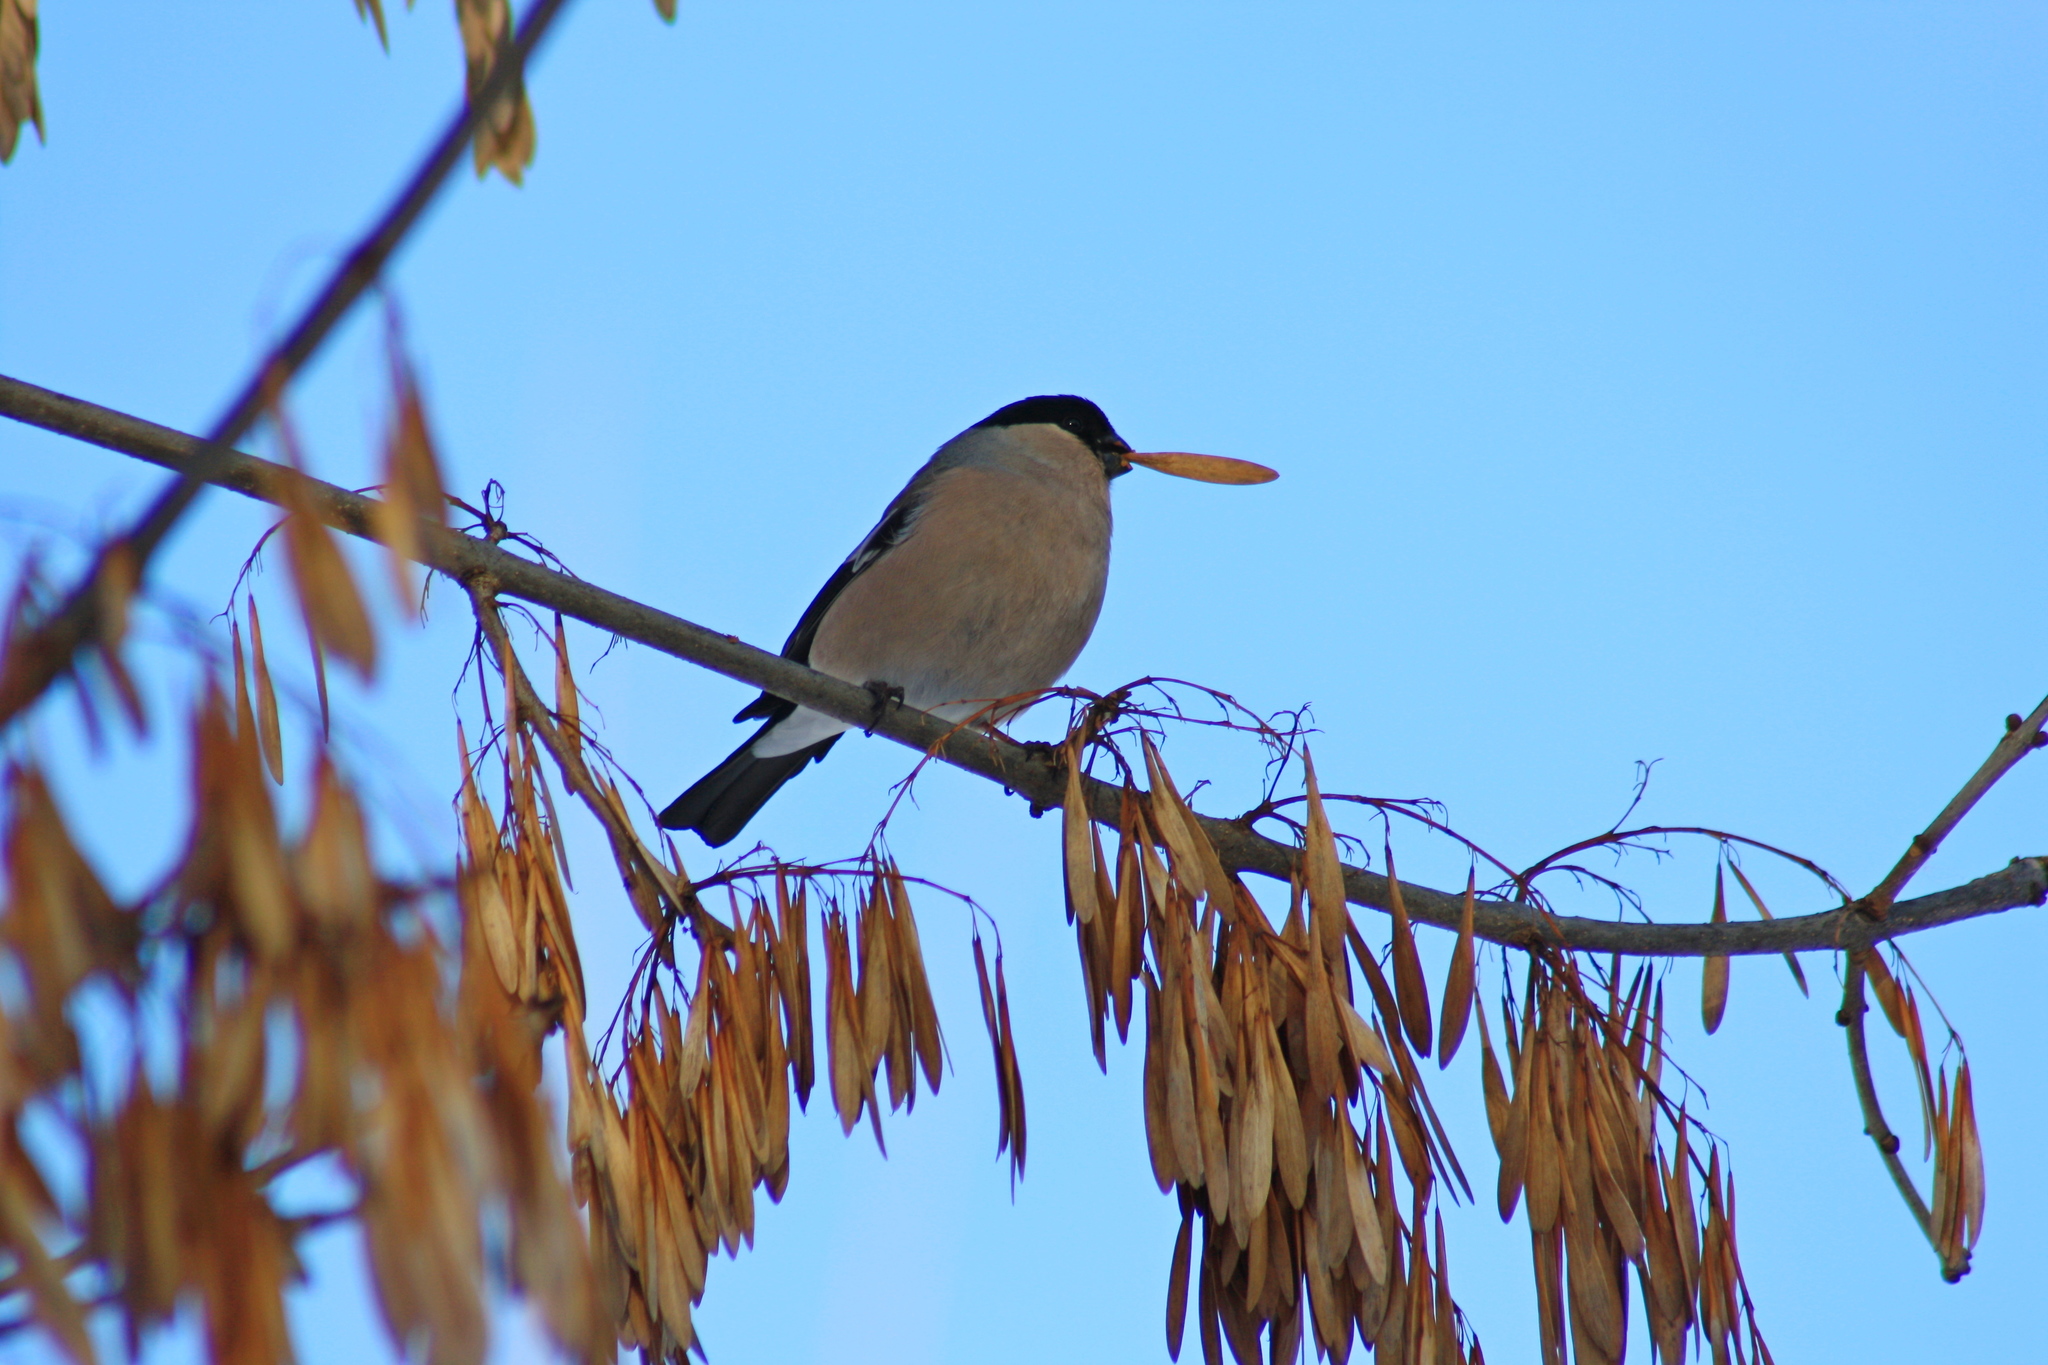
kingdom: Animalia
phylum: Chordata
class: Aves
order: Passeriformes
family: Fringillidae
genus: Pyrrhula
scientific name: Pyrrhula pyrrhula
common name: Eurasian bullfinch
